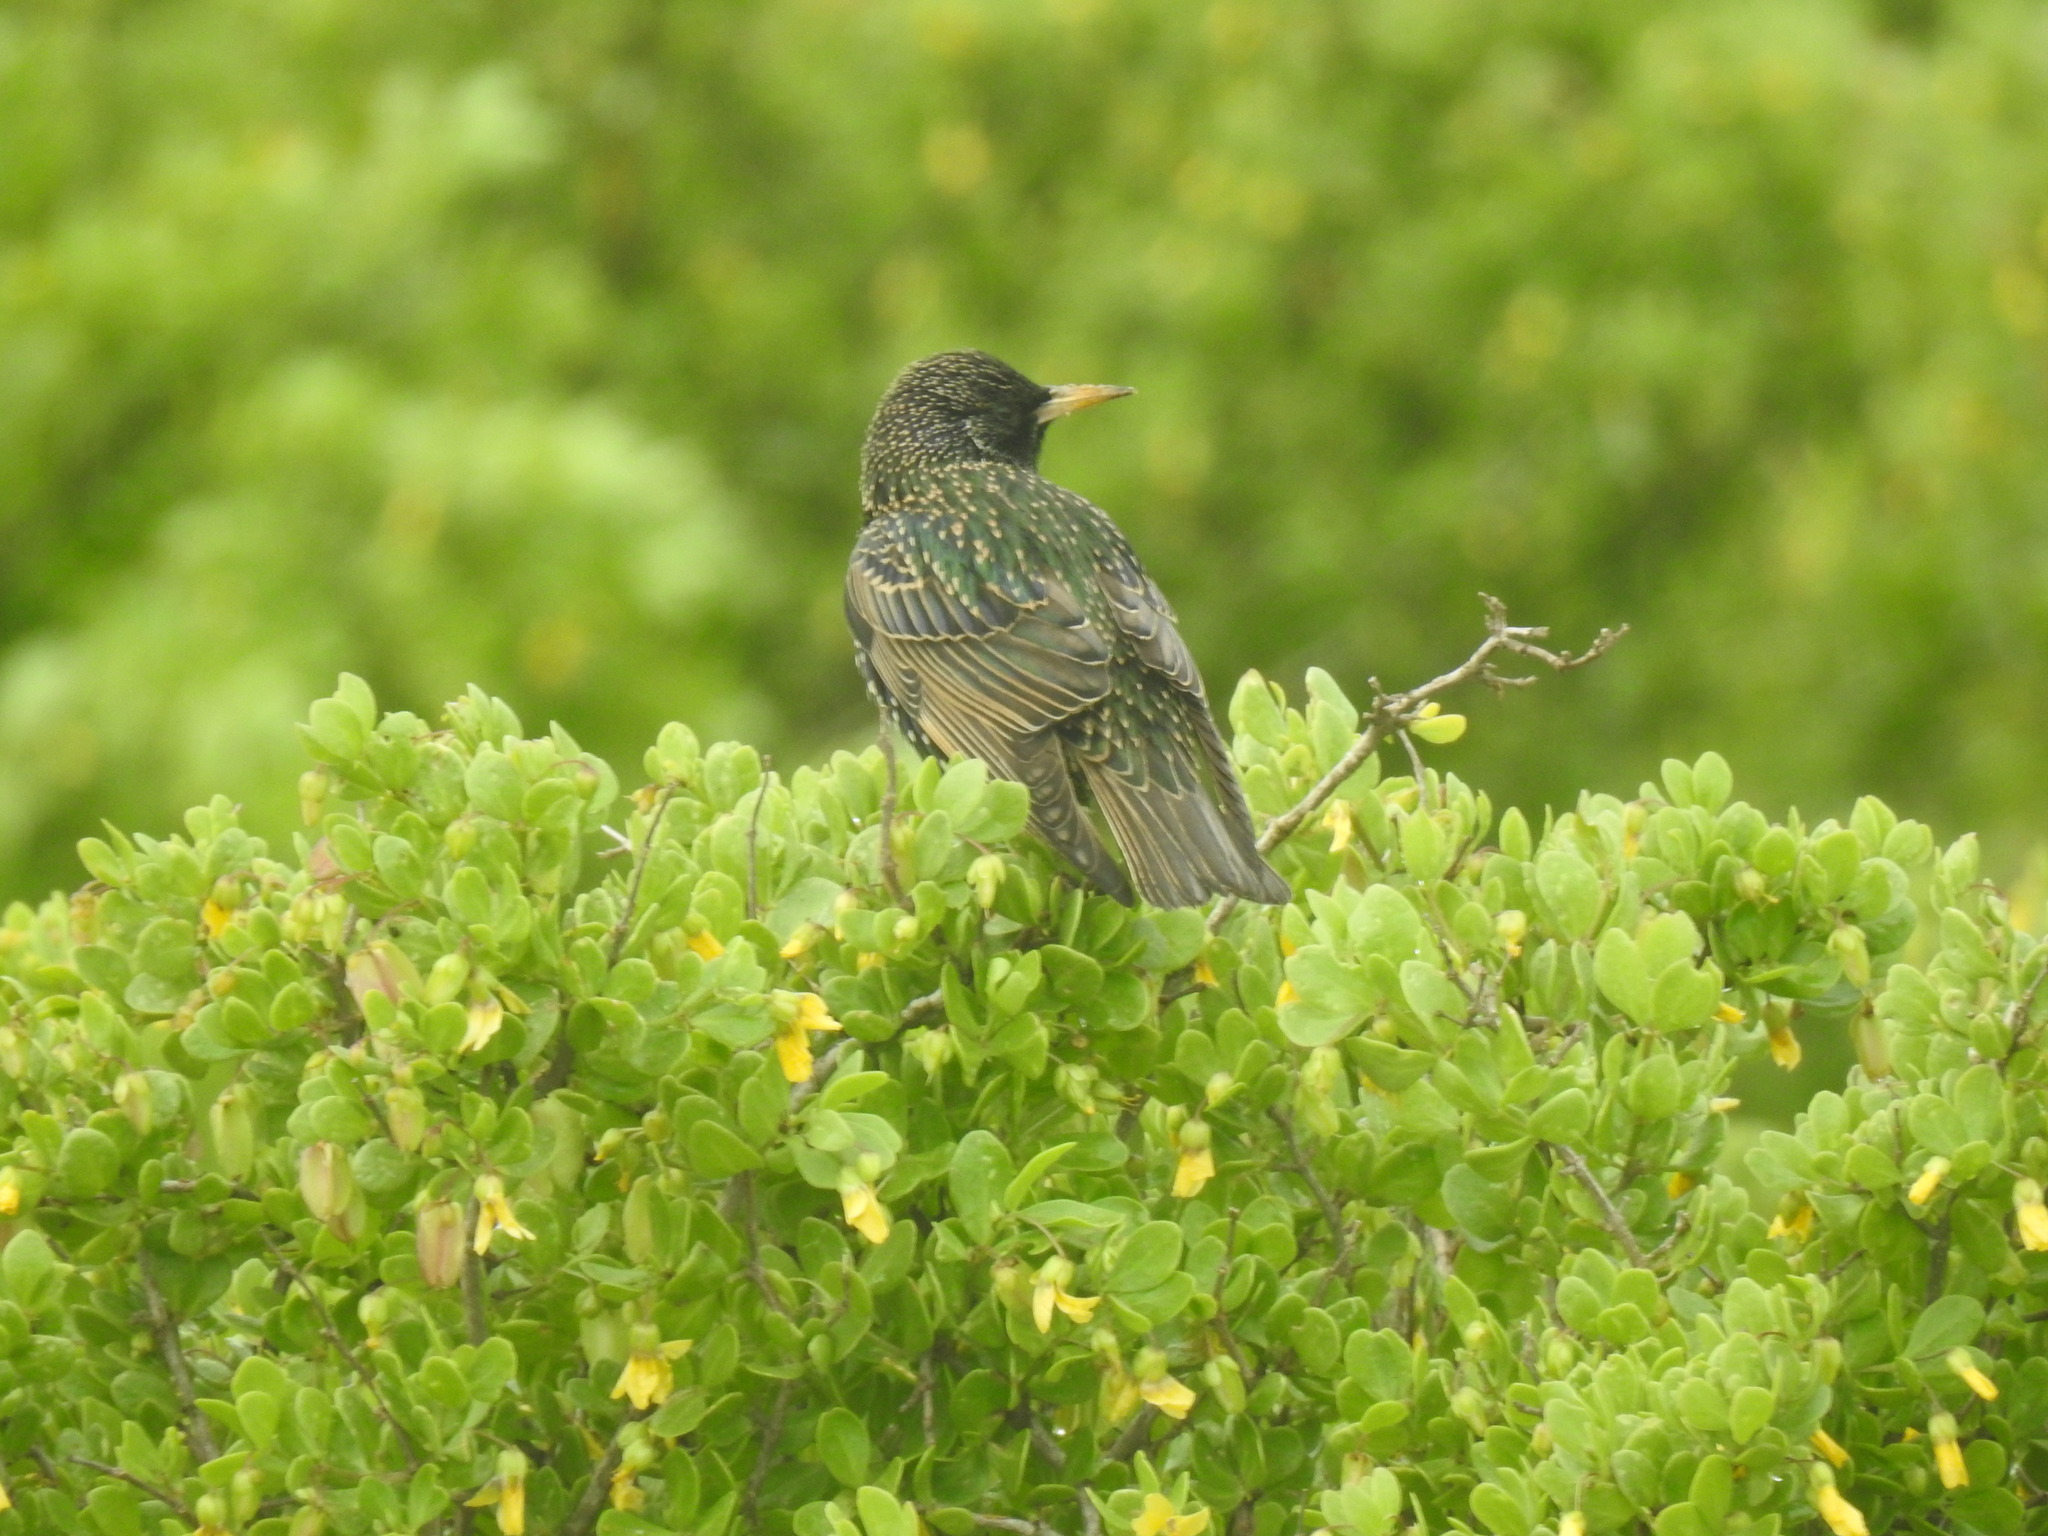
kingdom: Animalia
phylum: Chordata
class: Aves
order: Passeriformes
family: Sturnidae
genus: Sturnus
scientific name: Sturnus vulgaris
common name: Common starling
